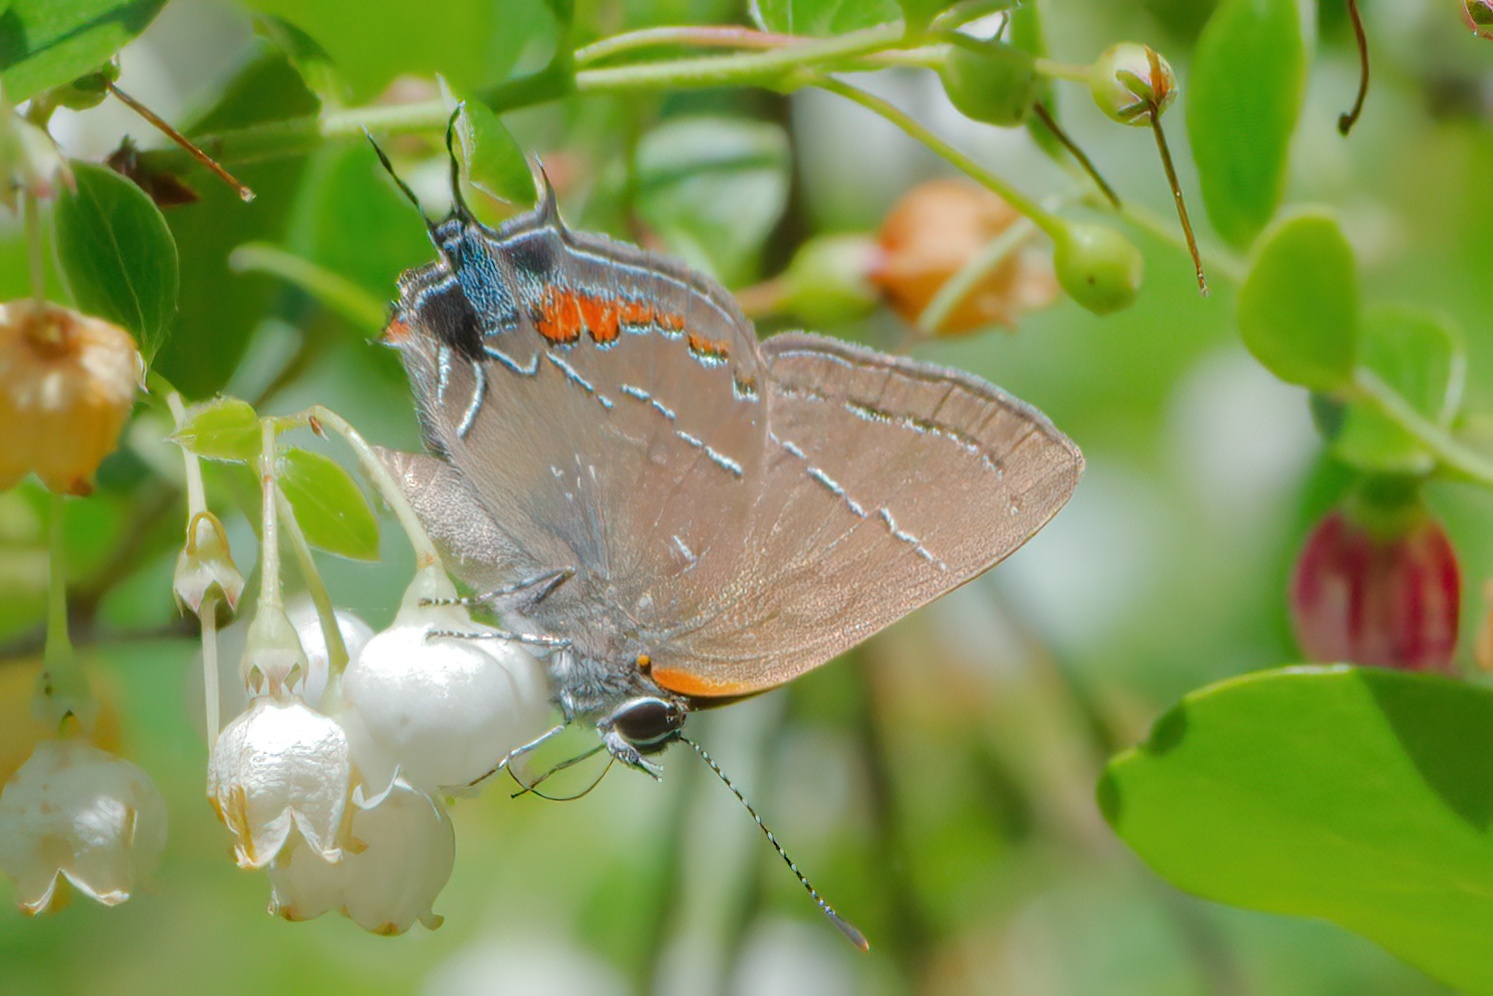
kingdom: Animalia
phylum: Arthropoda
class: Insecta
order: Lepidoptera
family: Lycaenidae
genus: Fixsenia
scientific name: Fixsenia favonius
